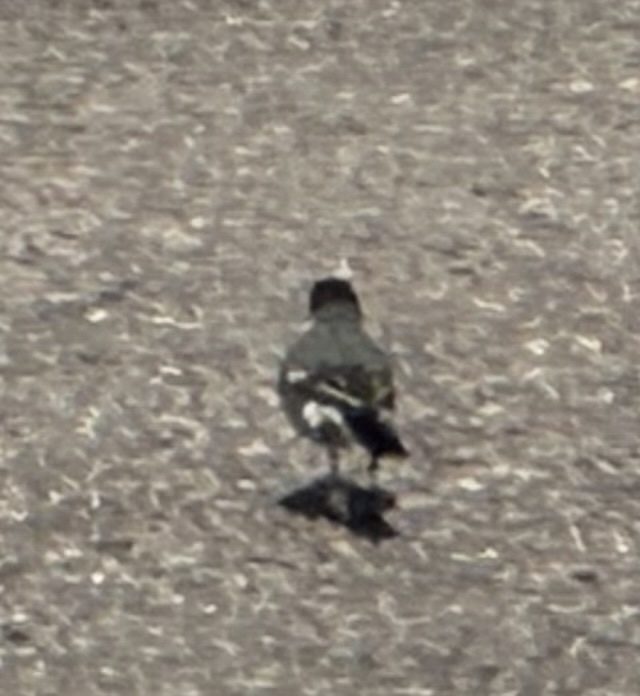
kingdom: Animalia
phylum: Chordata
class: Aves
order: Passeriformes
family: Motacillidae
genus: Motacilla
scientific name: Motacilla alba
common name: White wagtail
